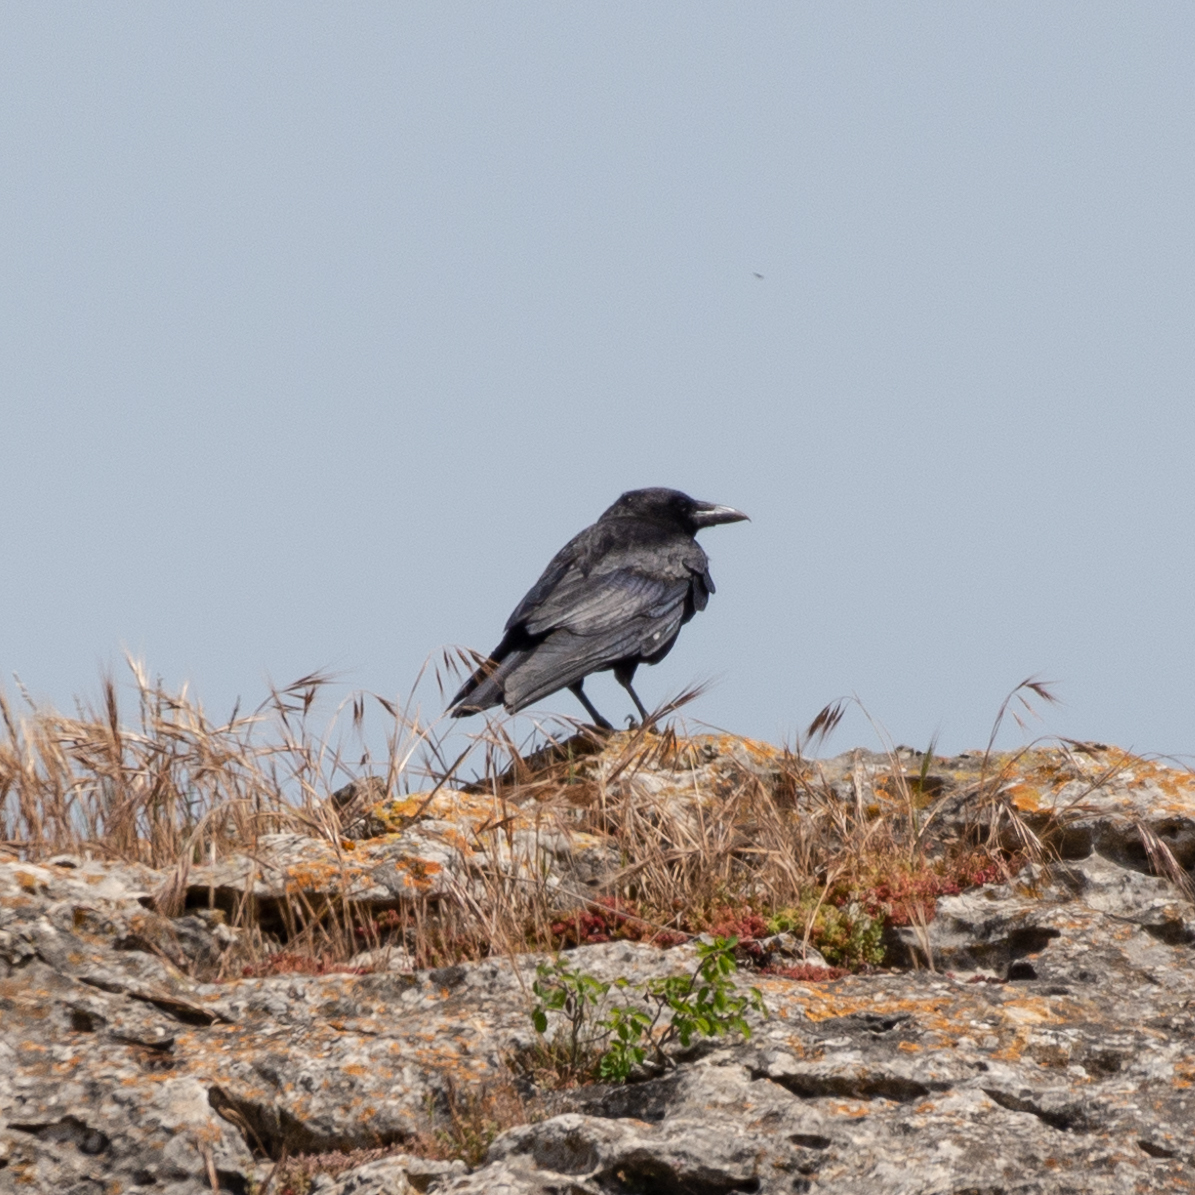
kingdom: Animalia
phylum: Chordata
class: Aves
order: Passeriformes
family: Corvidae
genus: Corvus
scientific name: Corvus corone
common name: Carrion crow
